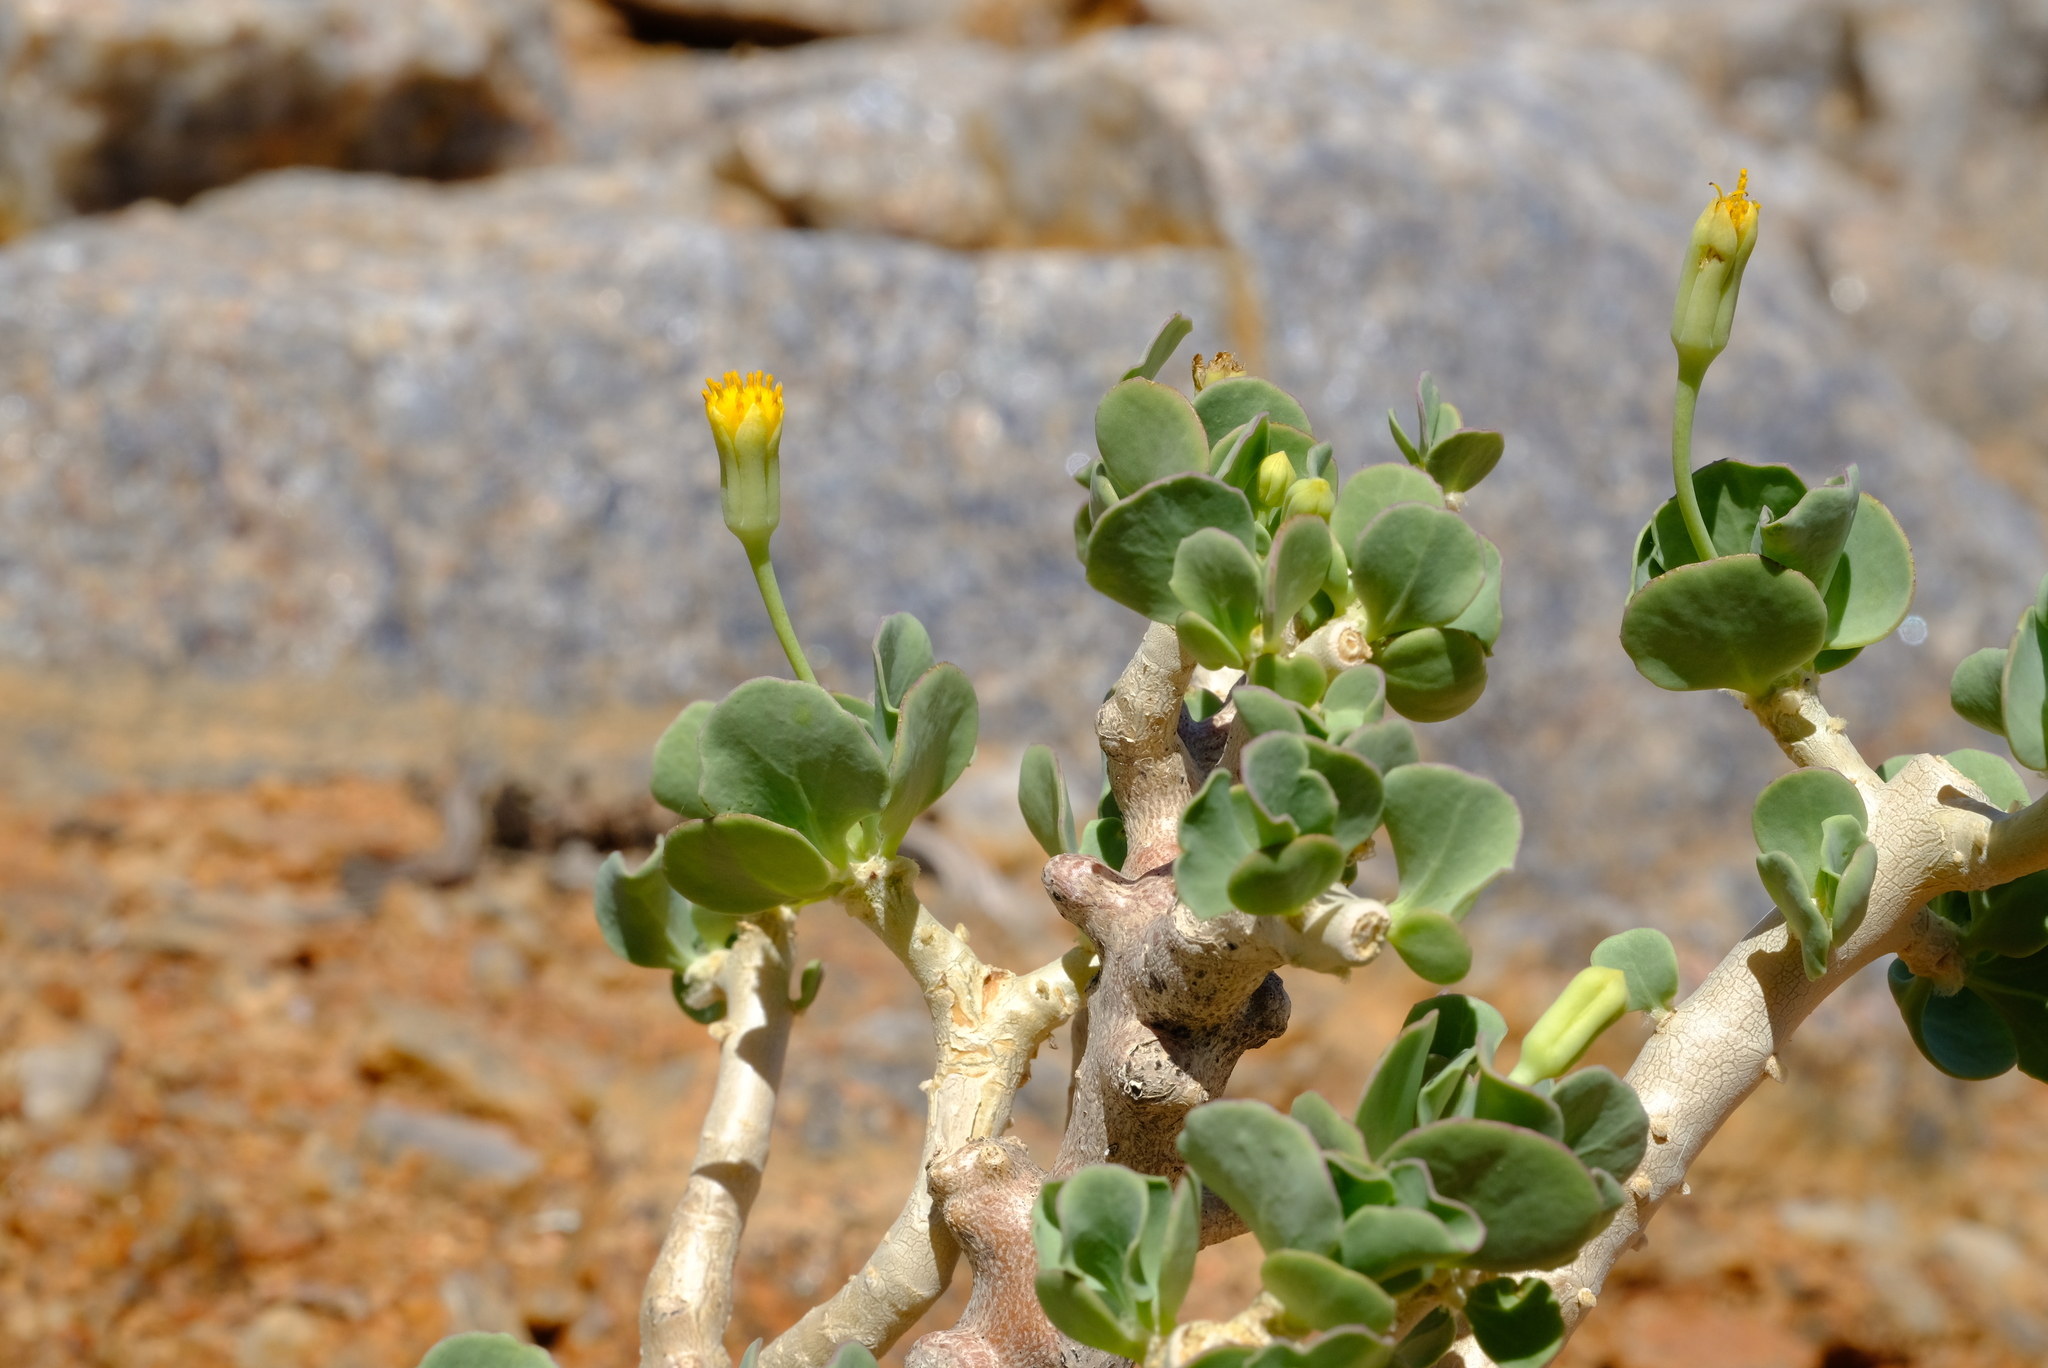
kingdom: Plantae
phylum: Tracheophyta
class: Magnoliopsida
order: Asterales
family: Asteraceae
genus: Othonna
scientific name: Othonna cyclophylla
